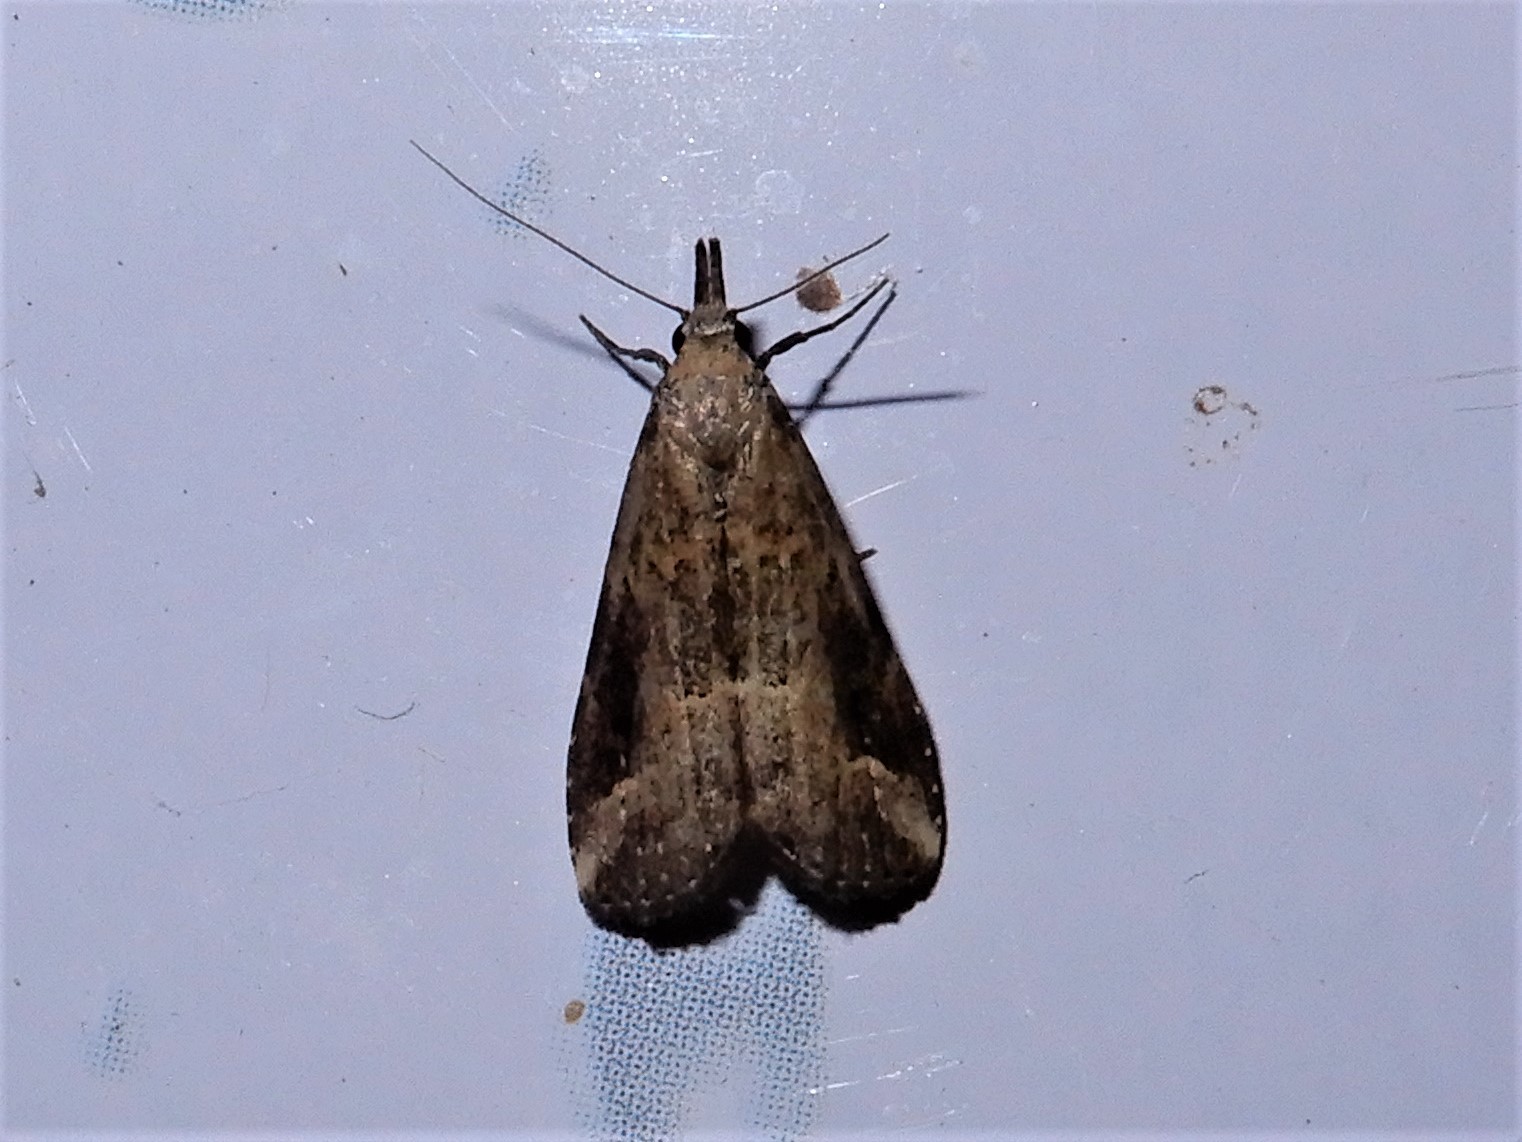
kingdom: Animalia
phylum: Arthropoda
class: Insecta
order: Lepidoptera
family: Erebidae
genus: Schrankia
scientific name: Schrankia costaestrigalis
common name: Pinion-streaked snout
